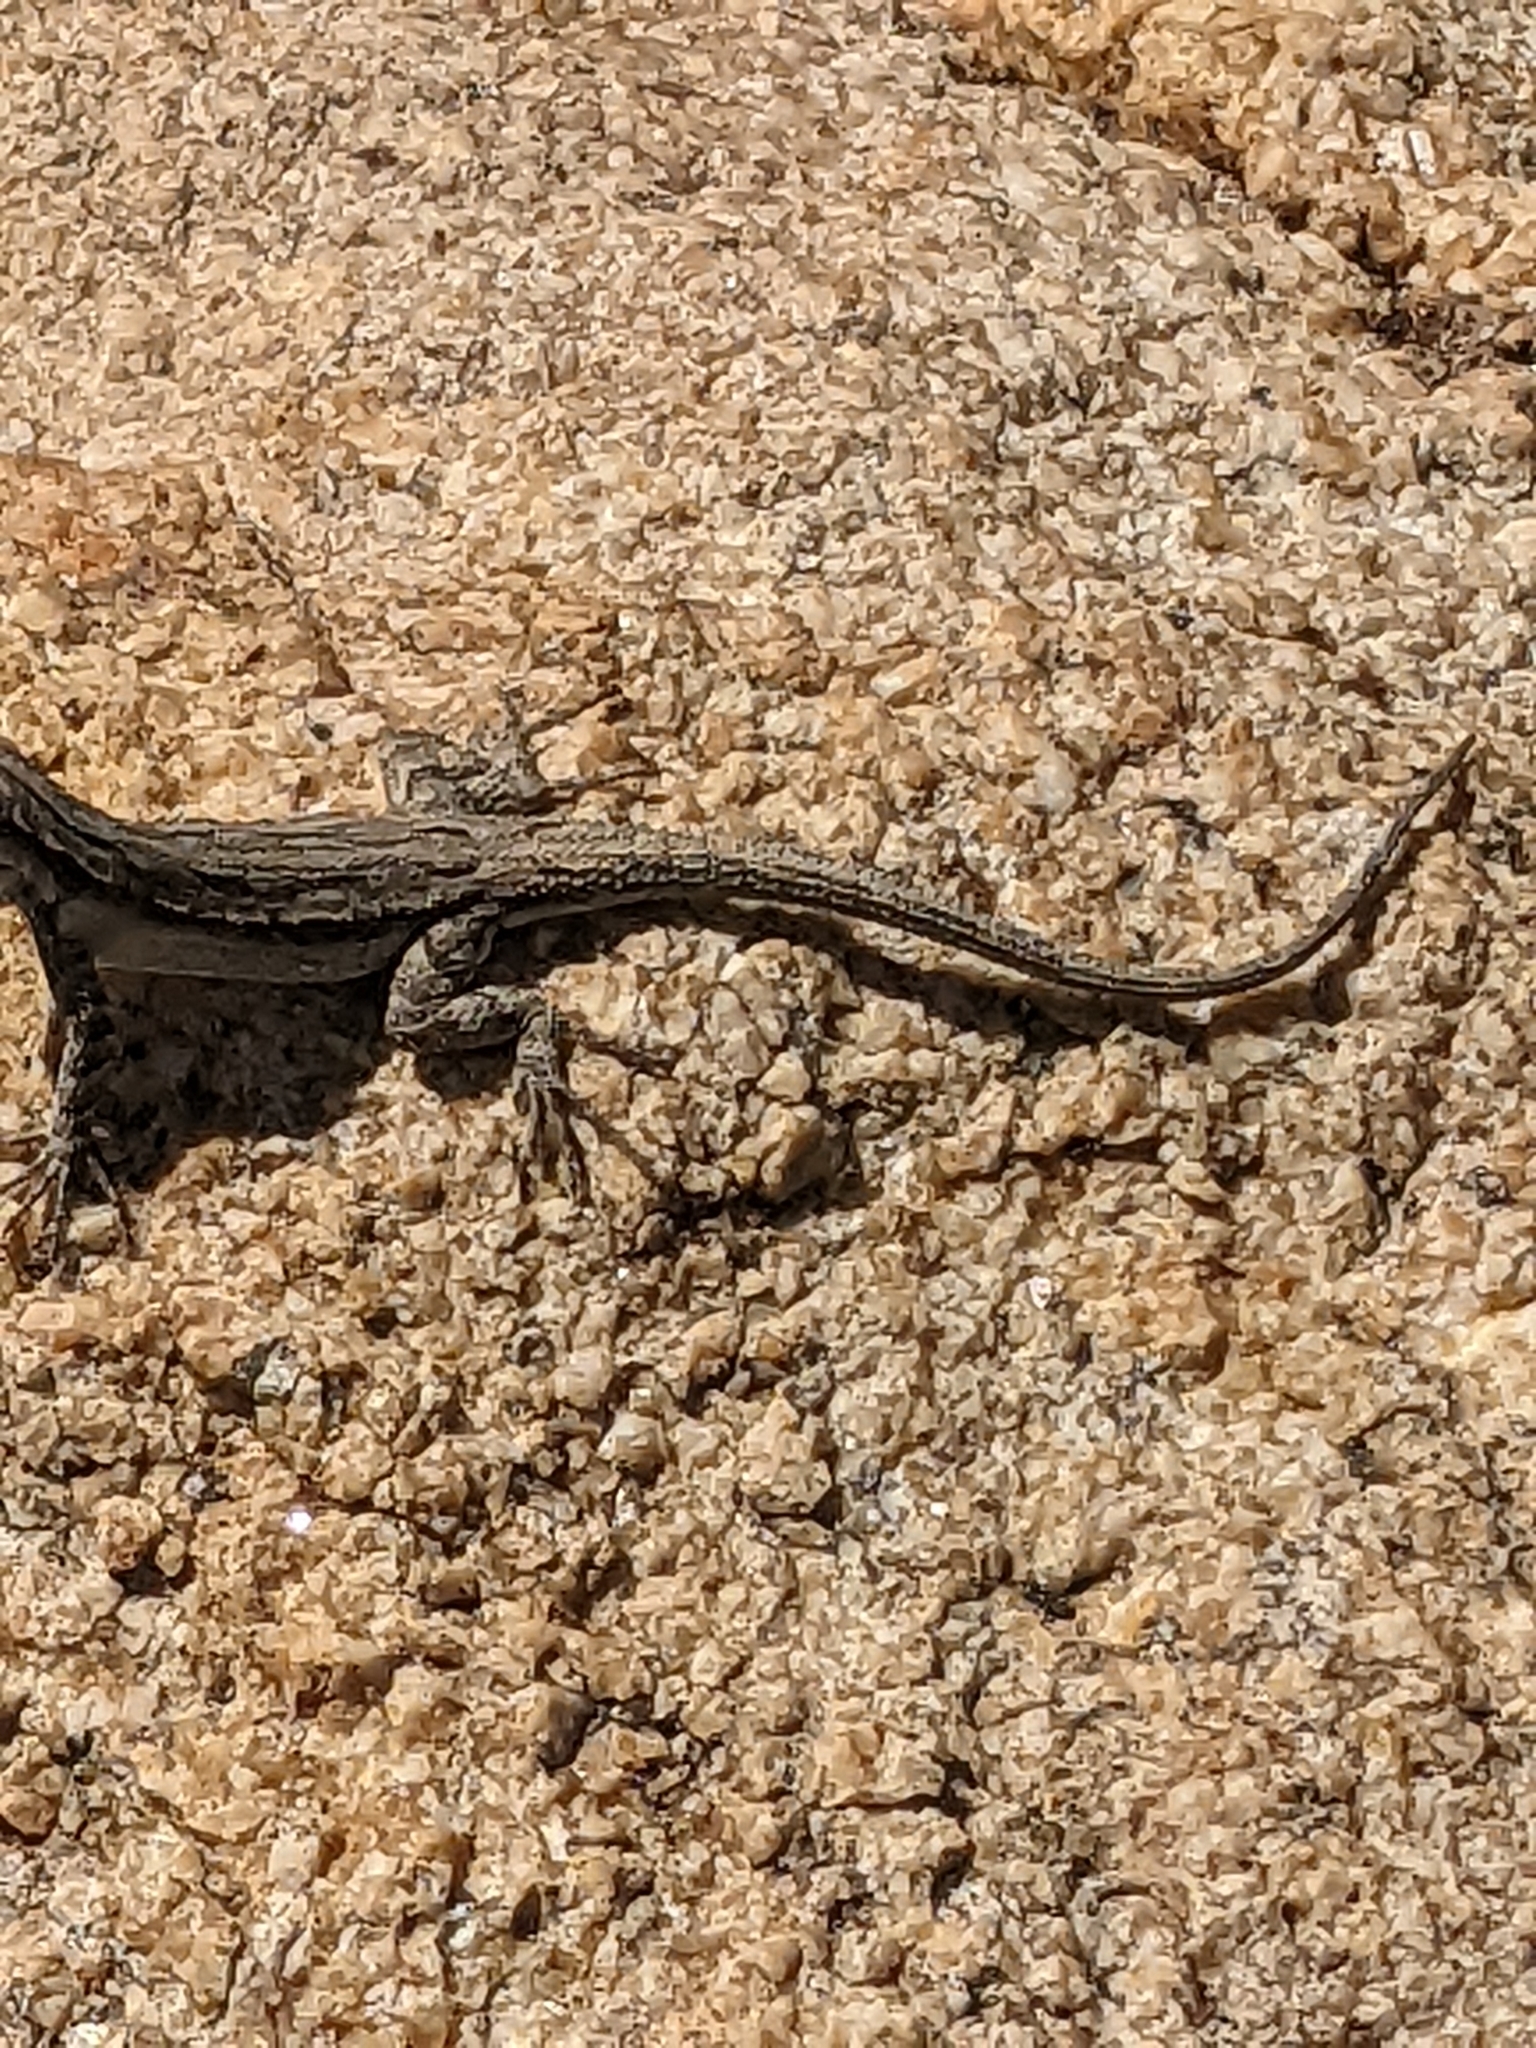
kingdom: Animalia
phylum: Chordata
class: Squamata
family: Phrynosomatidae
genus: Urosaurus
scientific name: Urosaurus ornatus
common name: Ornate tree lizard
